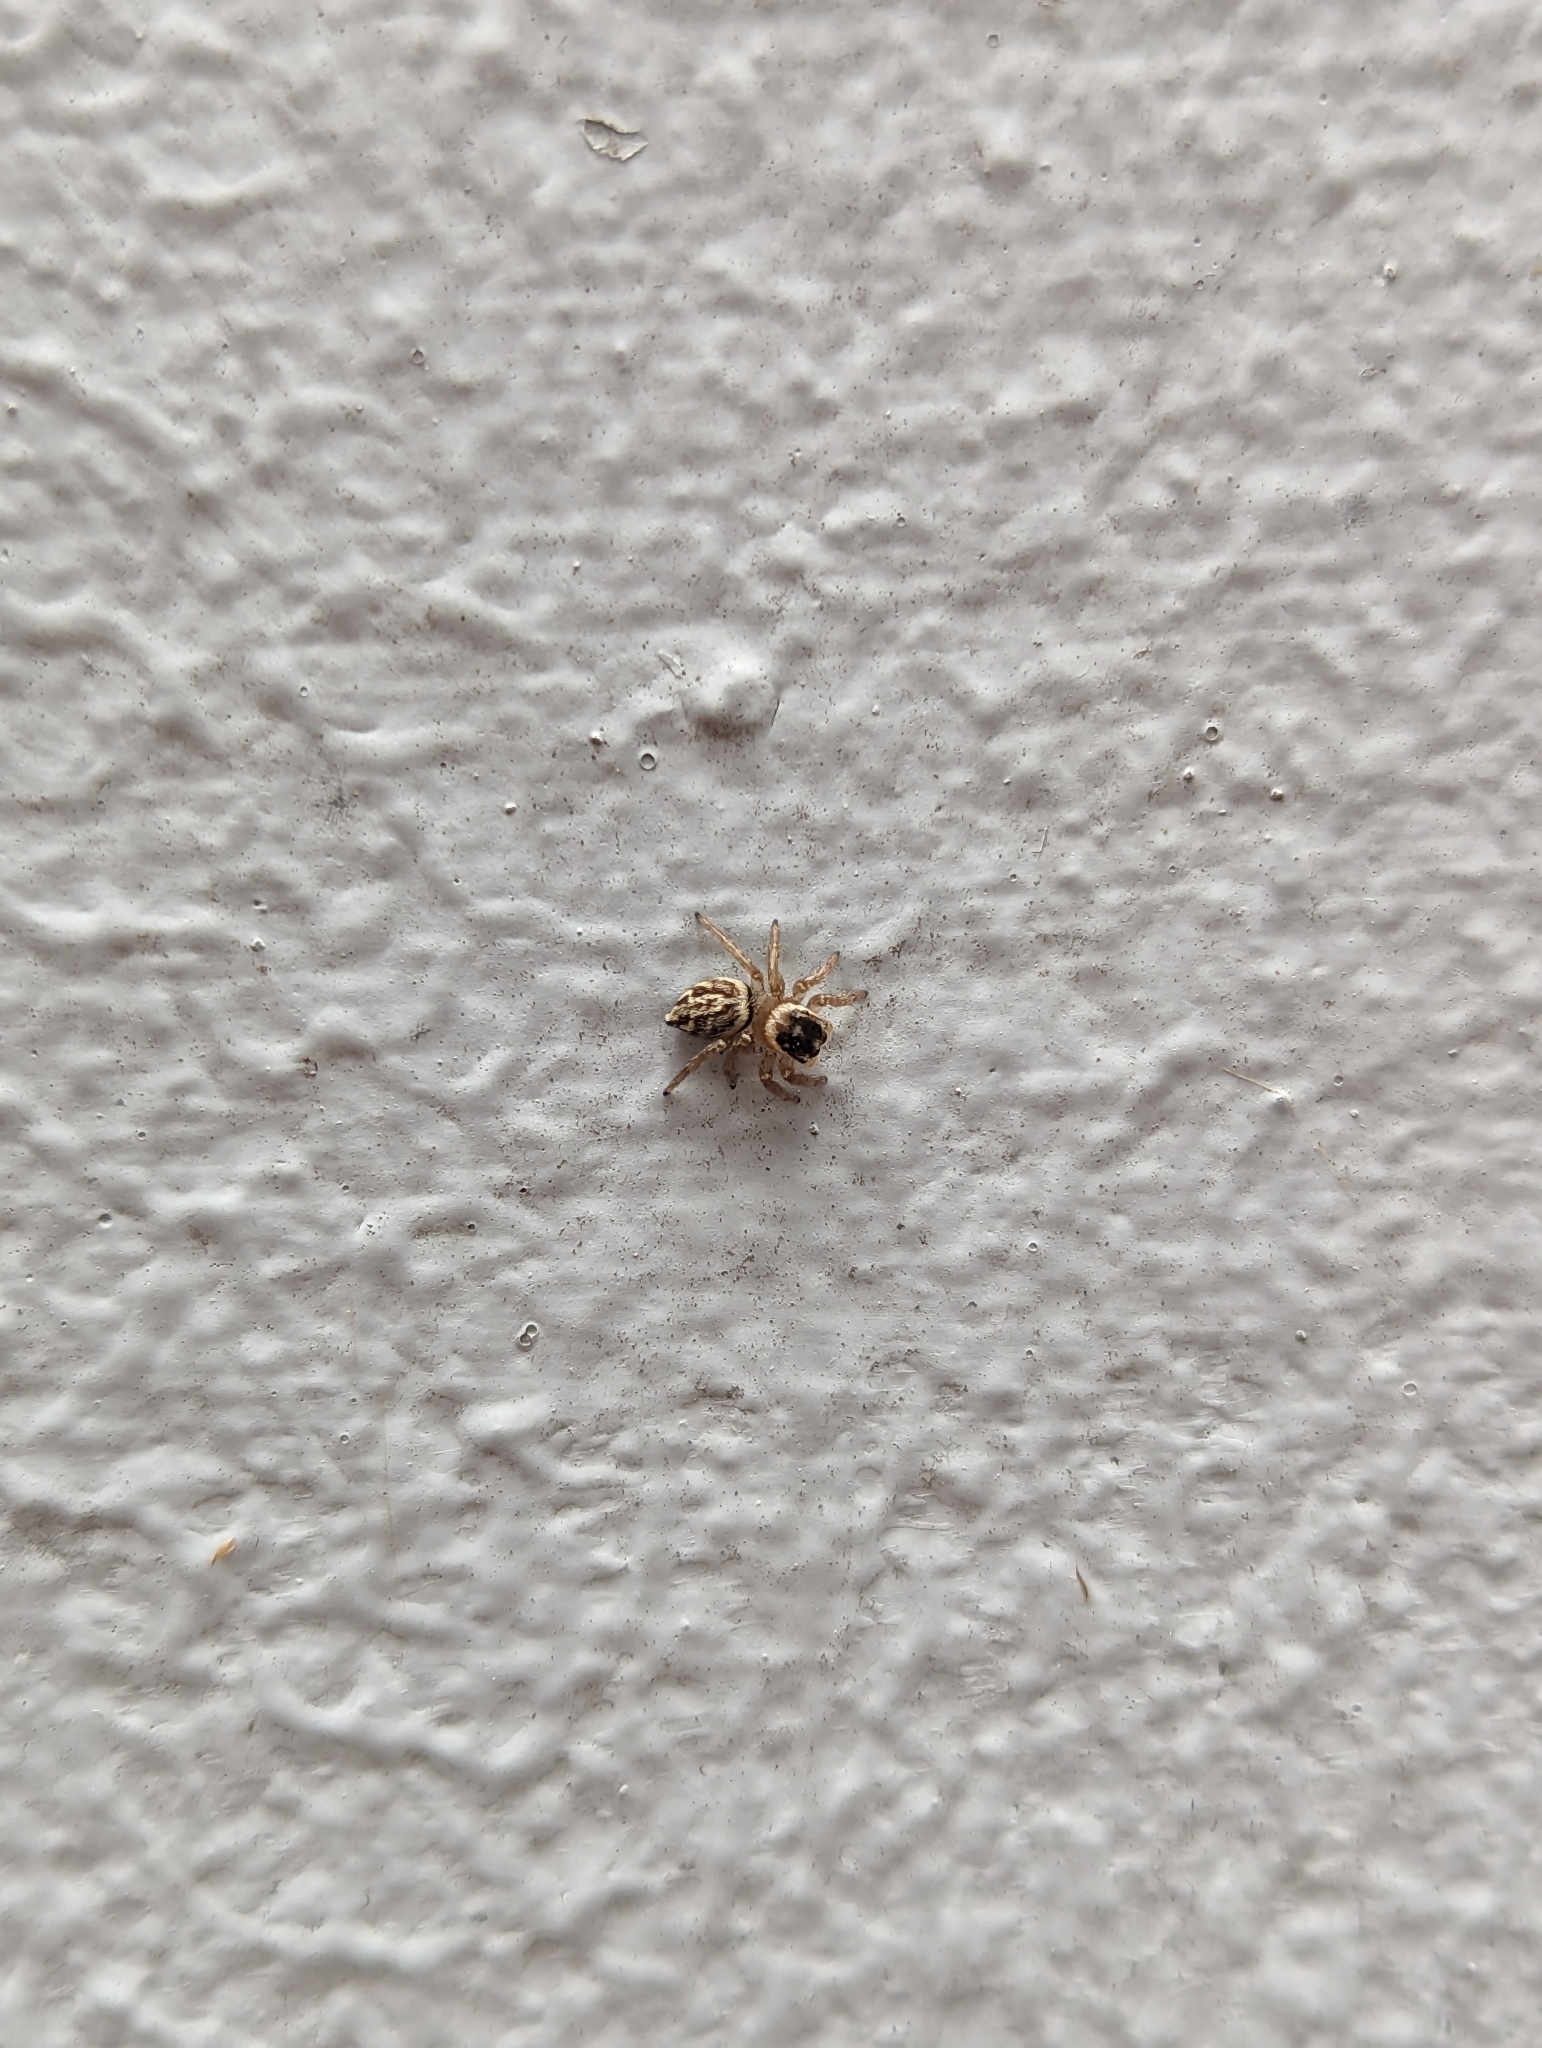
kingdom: Animalia
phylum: Arthropoda
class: Arachnida
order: Araneae
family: Salticidae
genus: Maratus
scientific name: Maratus griseus
